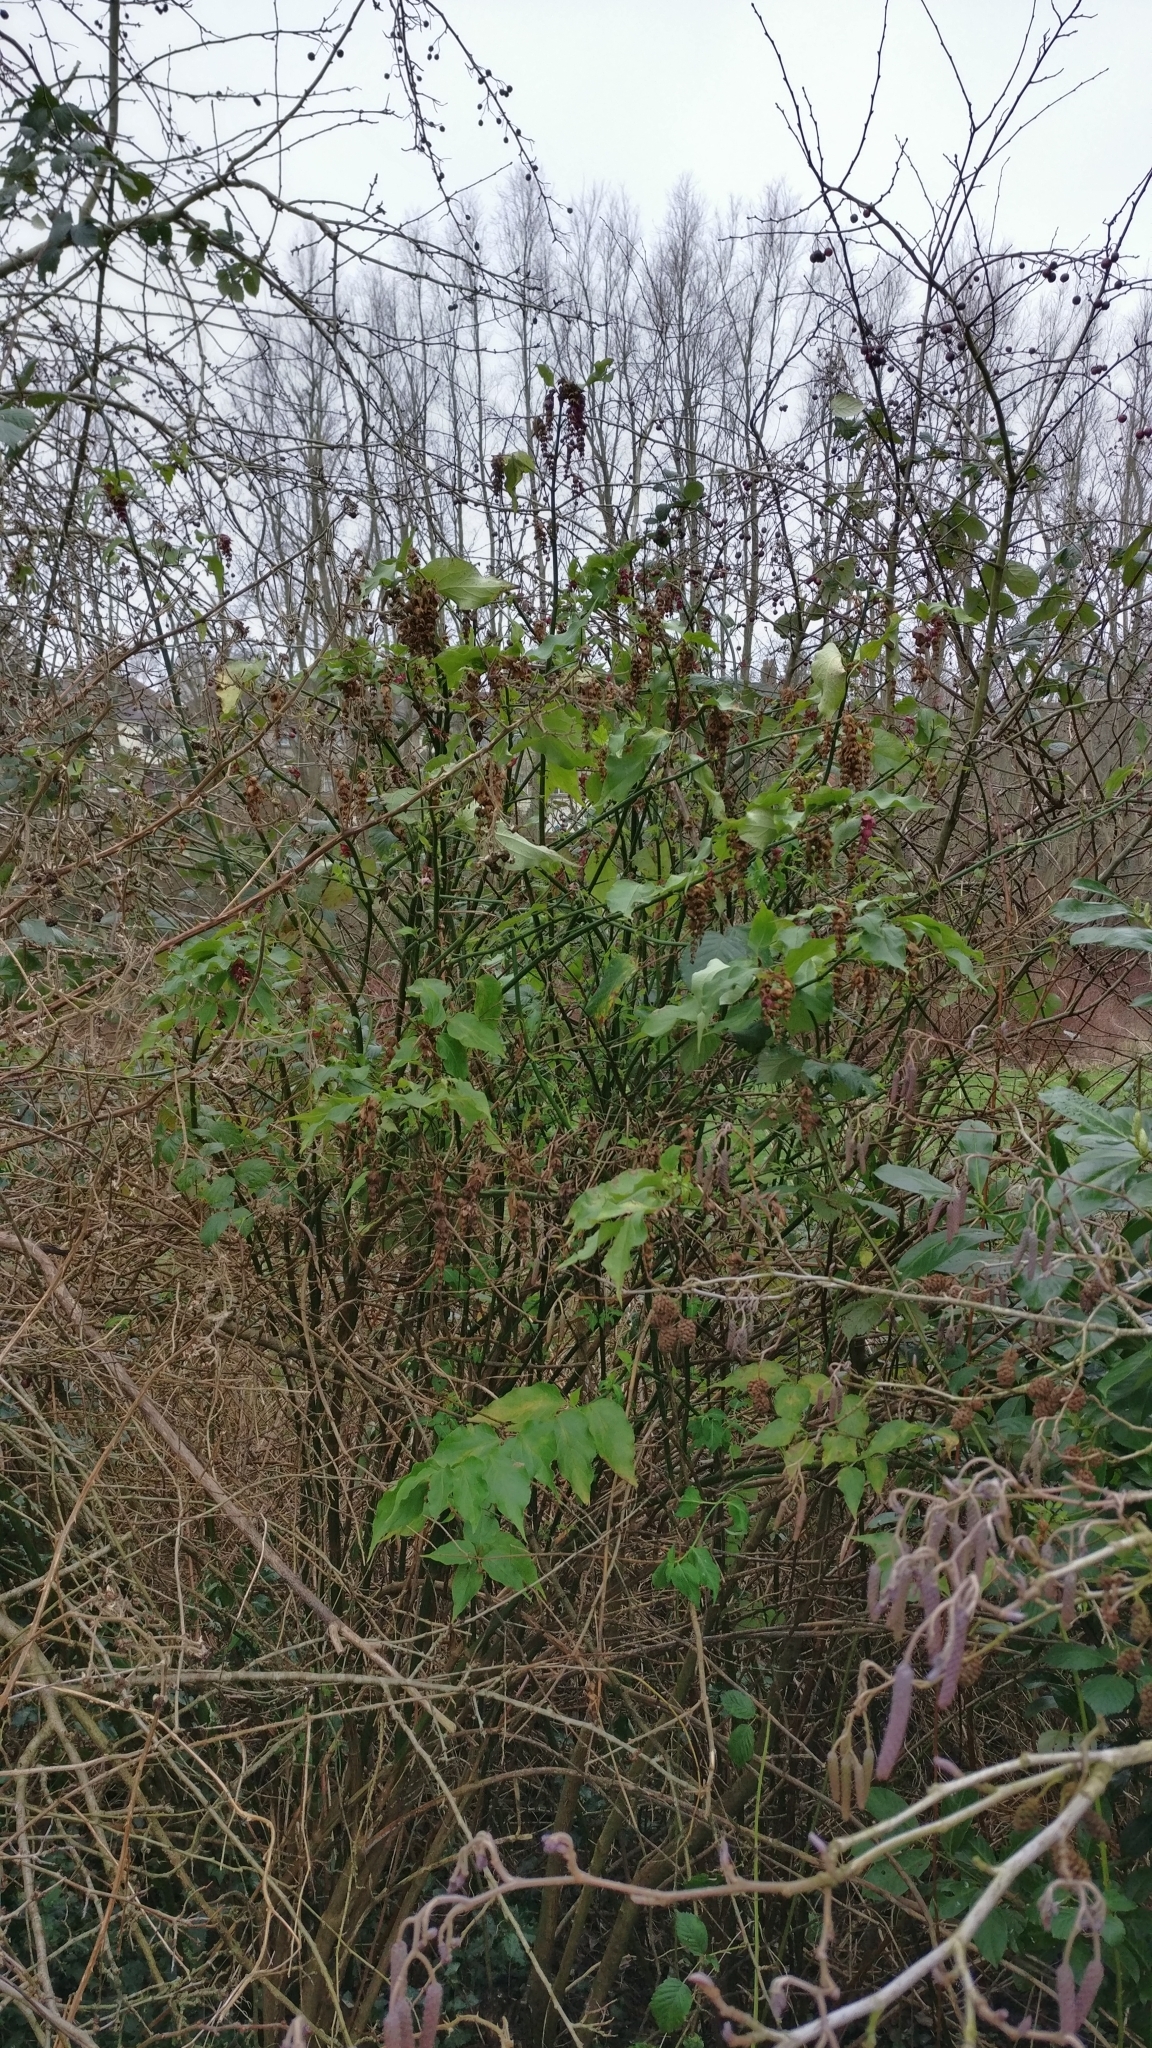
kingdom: Plantae
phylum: Tracheophyta
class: Magnoliopsida
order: Dipsacales
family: Caprifoliaceae
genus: Leycesteria
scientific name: Leycesteria formosa
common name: Himalayan honeysuckle
